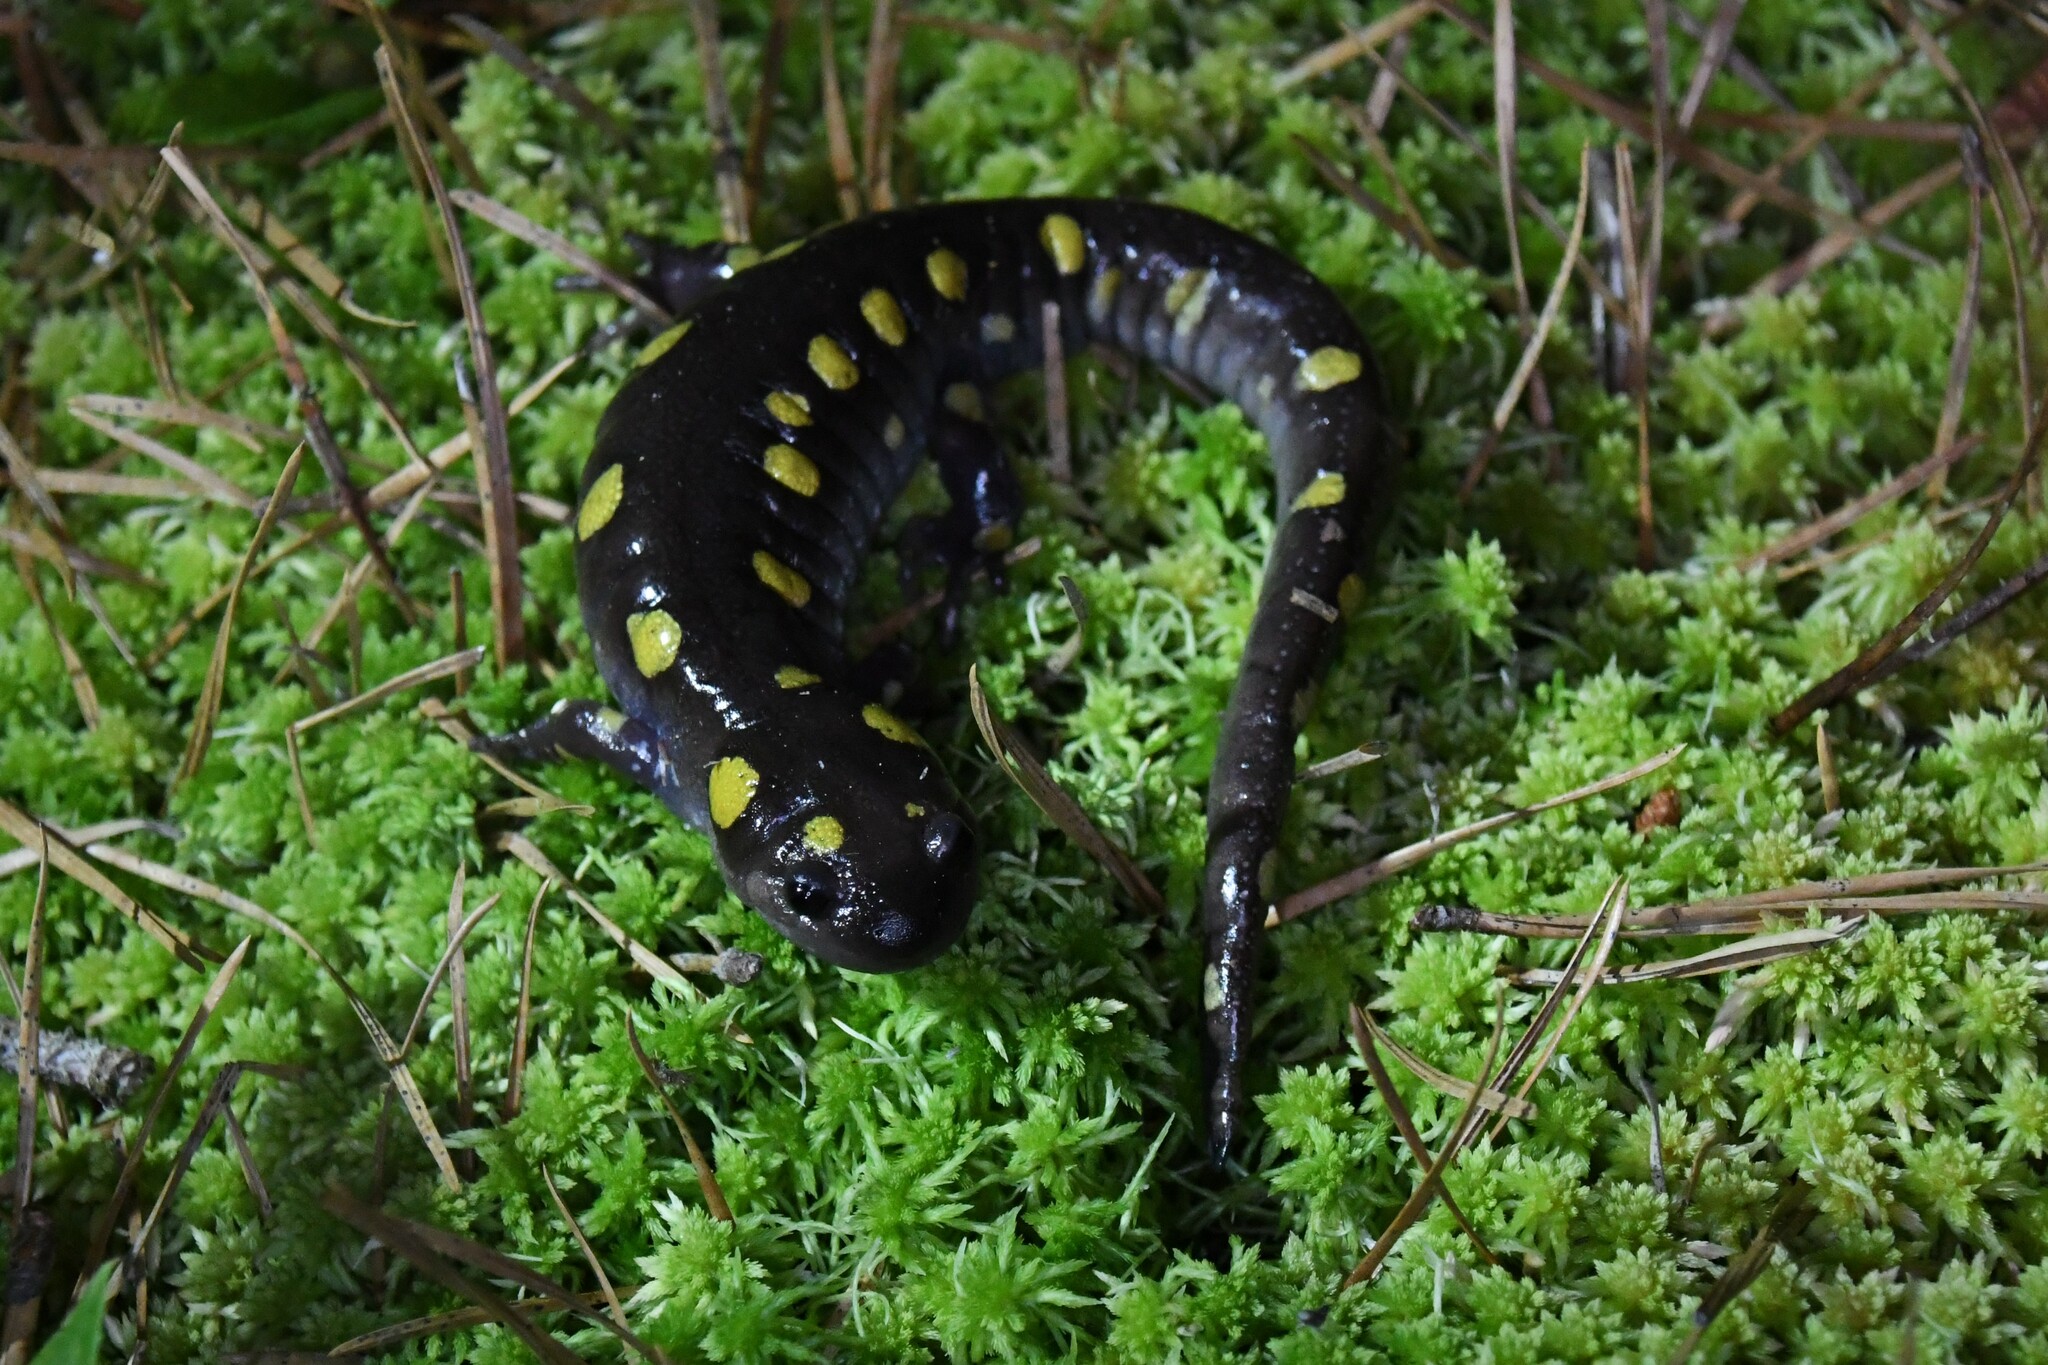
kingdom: Animalia
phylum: Chordata
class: Amphibia
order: Caudata
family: Ambystomatidae
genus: Ambystoma
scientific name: Ambystoma maculatum
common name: Spotted salamander
